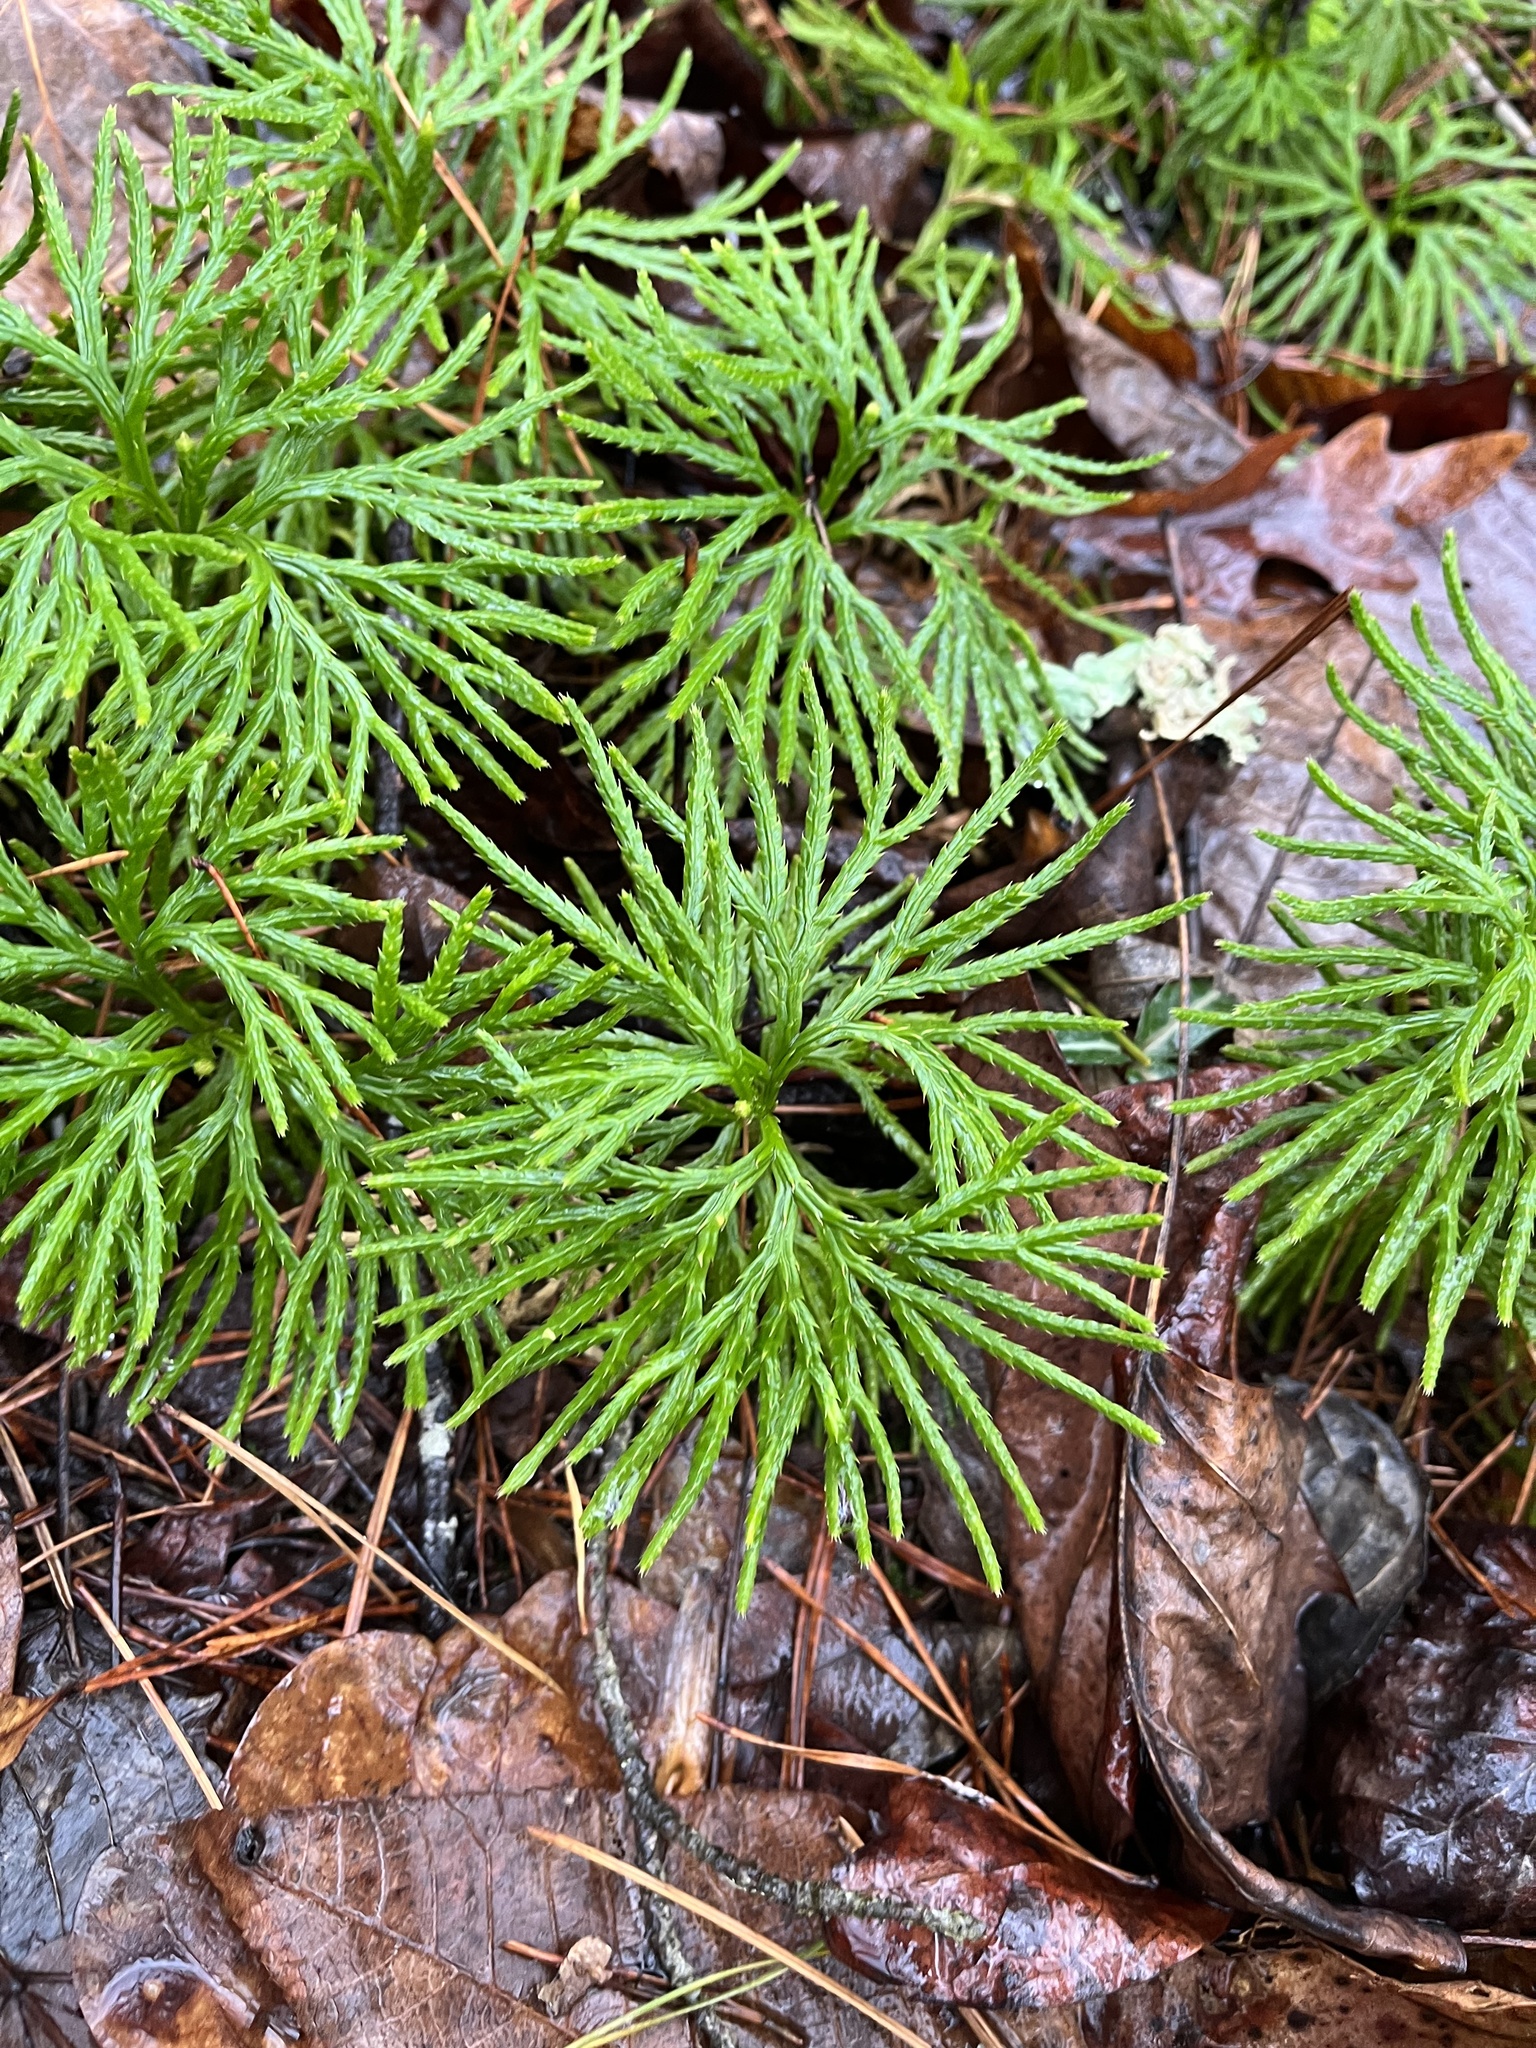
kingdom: Plantae
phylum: Tracheophyta
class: Lycopodiopsida
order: Lycopodiales
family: Lycopodiaceae
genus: Diphasiastrum
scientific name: Diphasiastrum digitatum
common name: Southern running-pine
